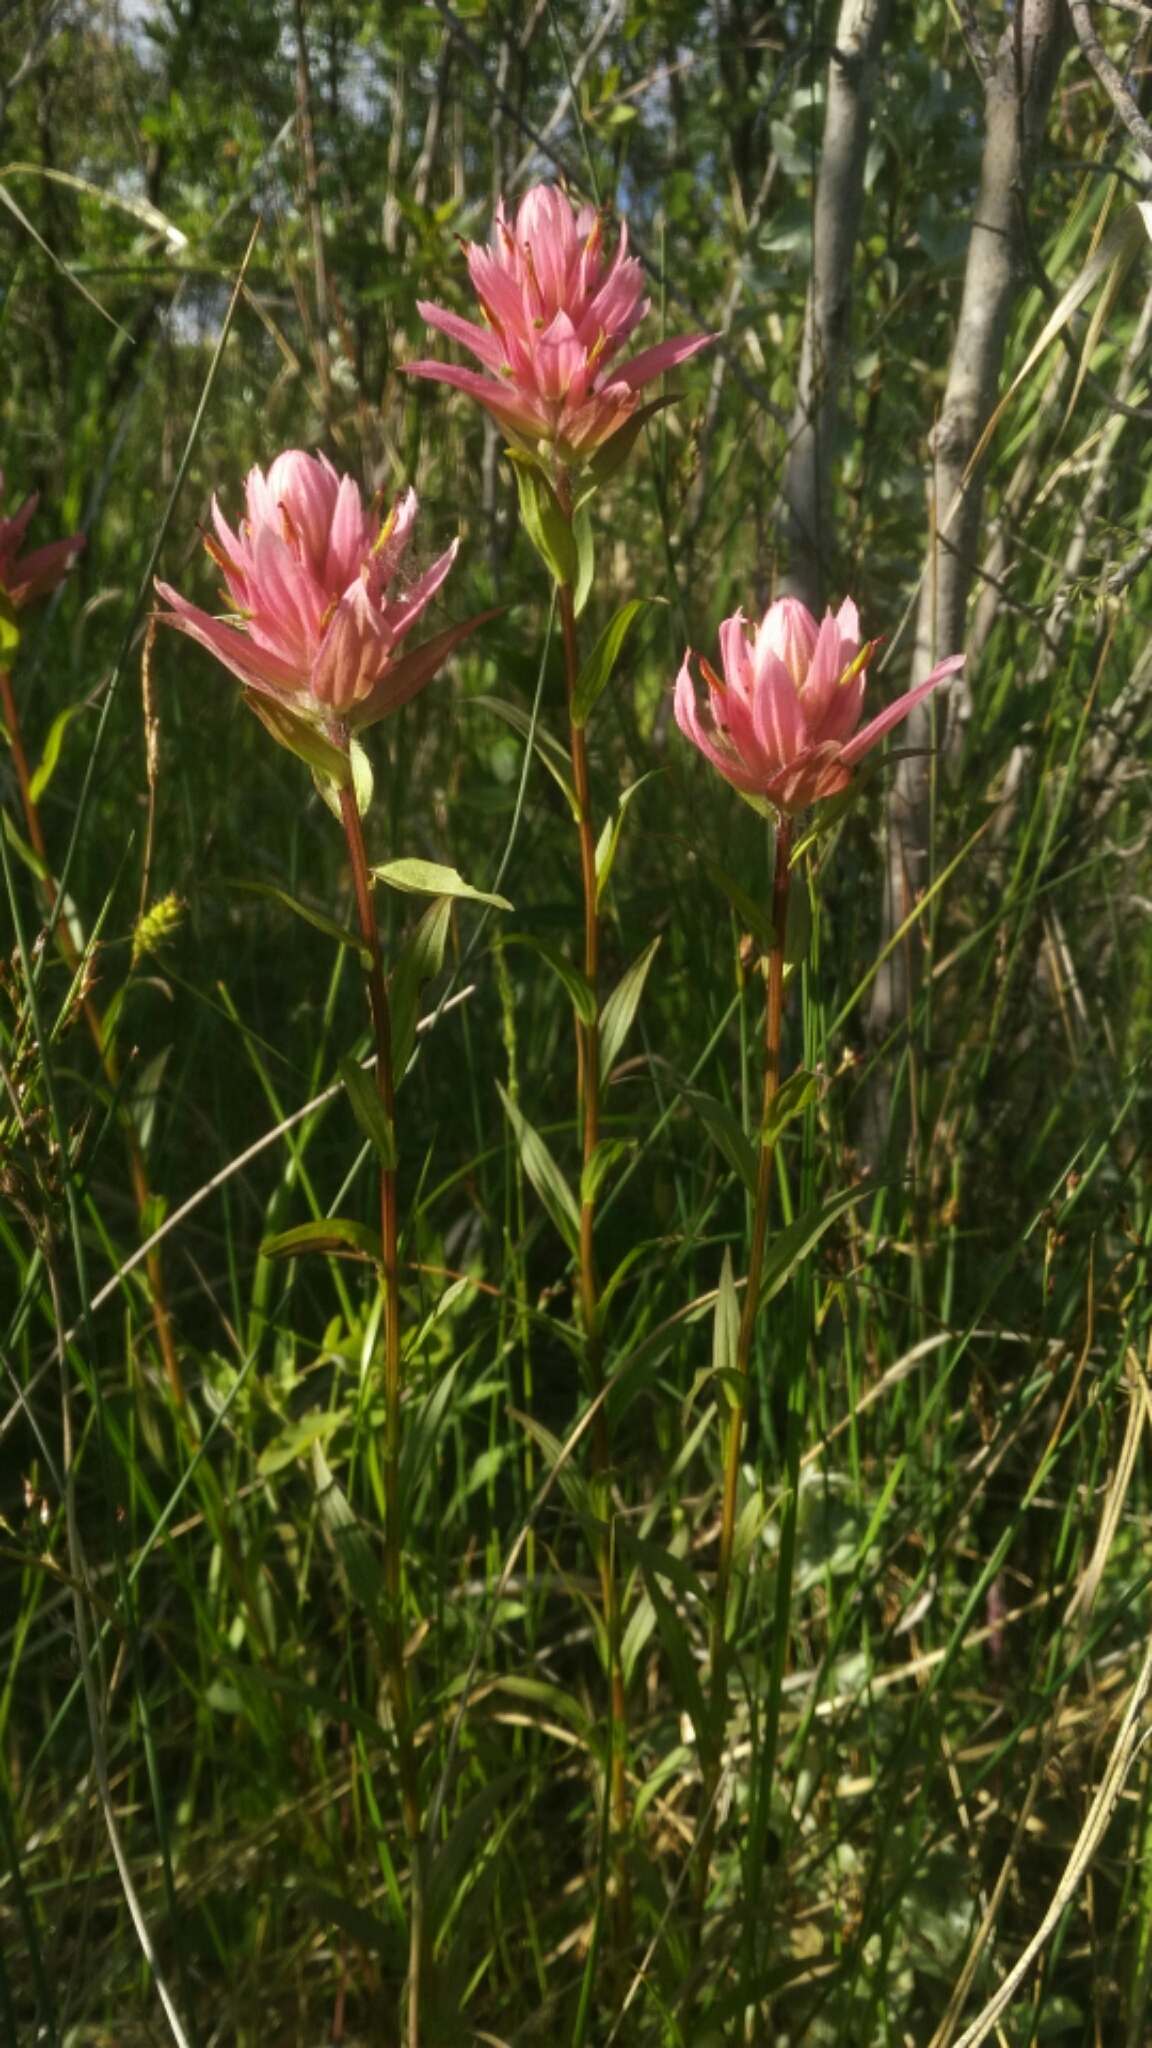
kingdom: Plantae
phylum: Tracheophyta
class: Magnoliopsida
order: Lamiales
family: Orobanchaceae
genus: Castilleja
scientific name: Castilleja miniata
